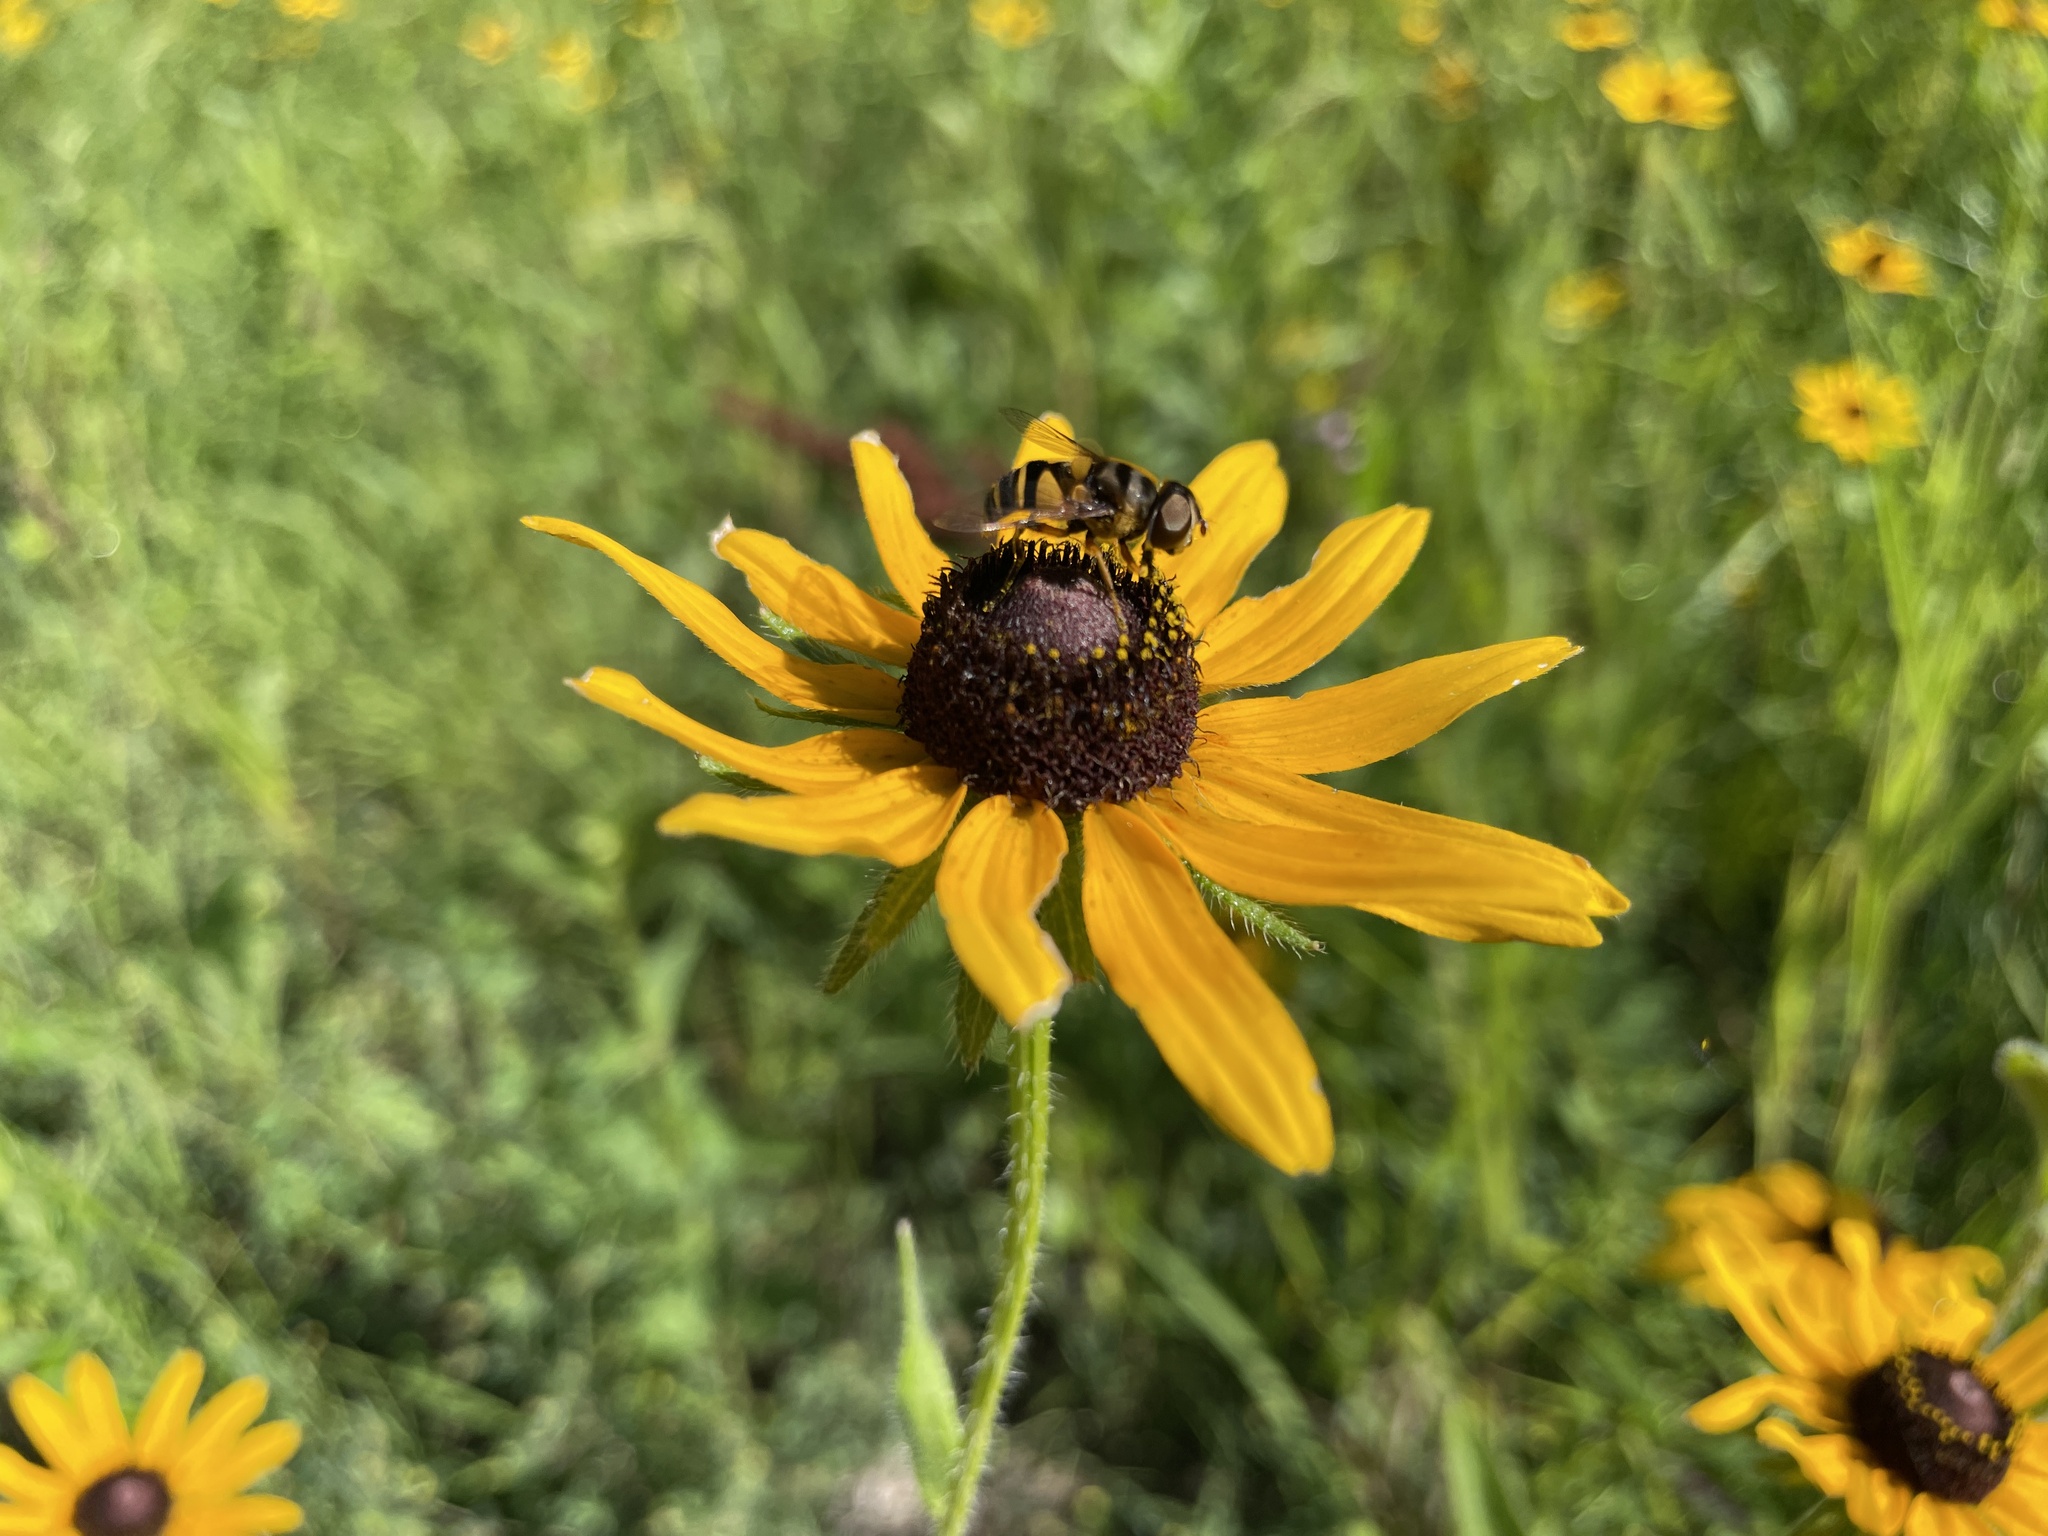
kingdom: Animalia
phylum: Arthropoda
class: Insecta
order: Diptera
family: Syrphidae
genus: Eristalis
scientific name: Eristalis transversa
